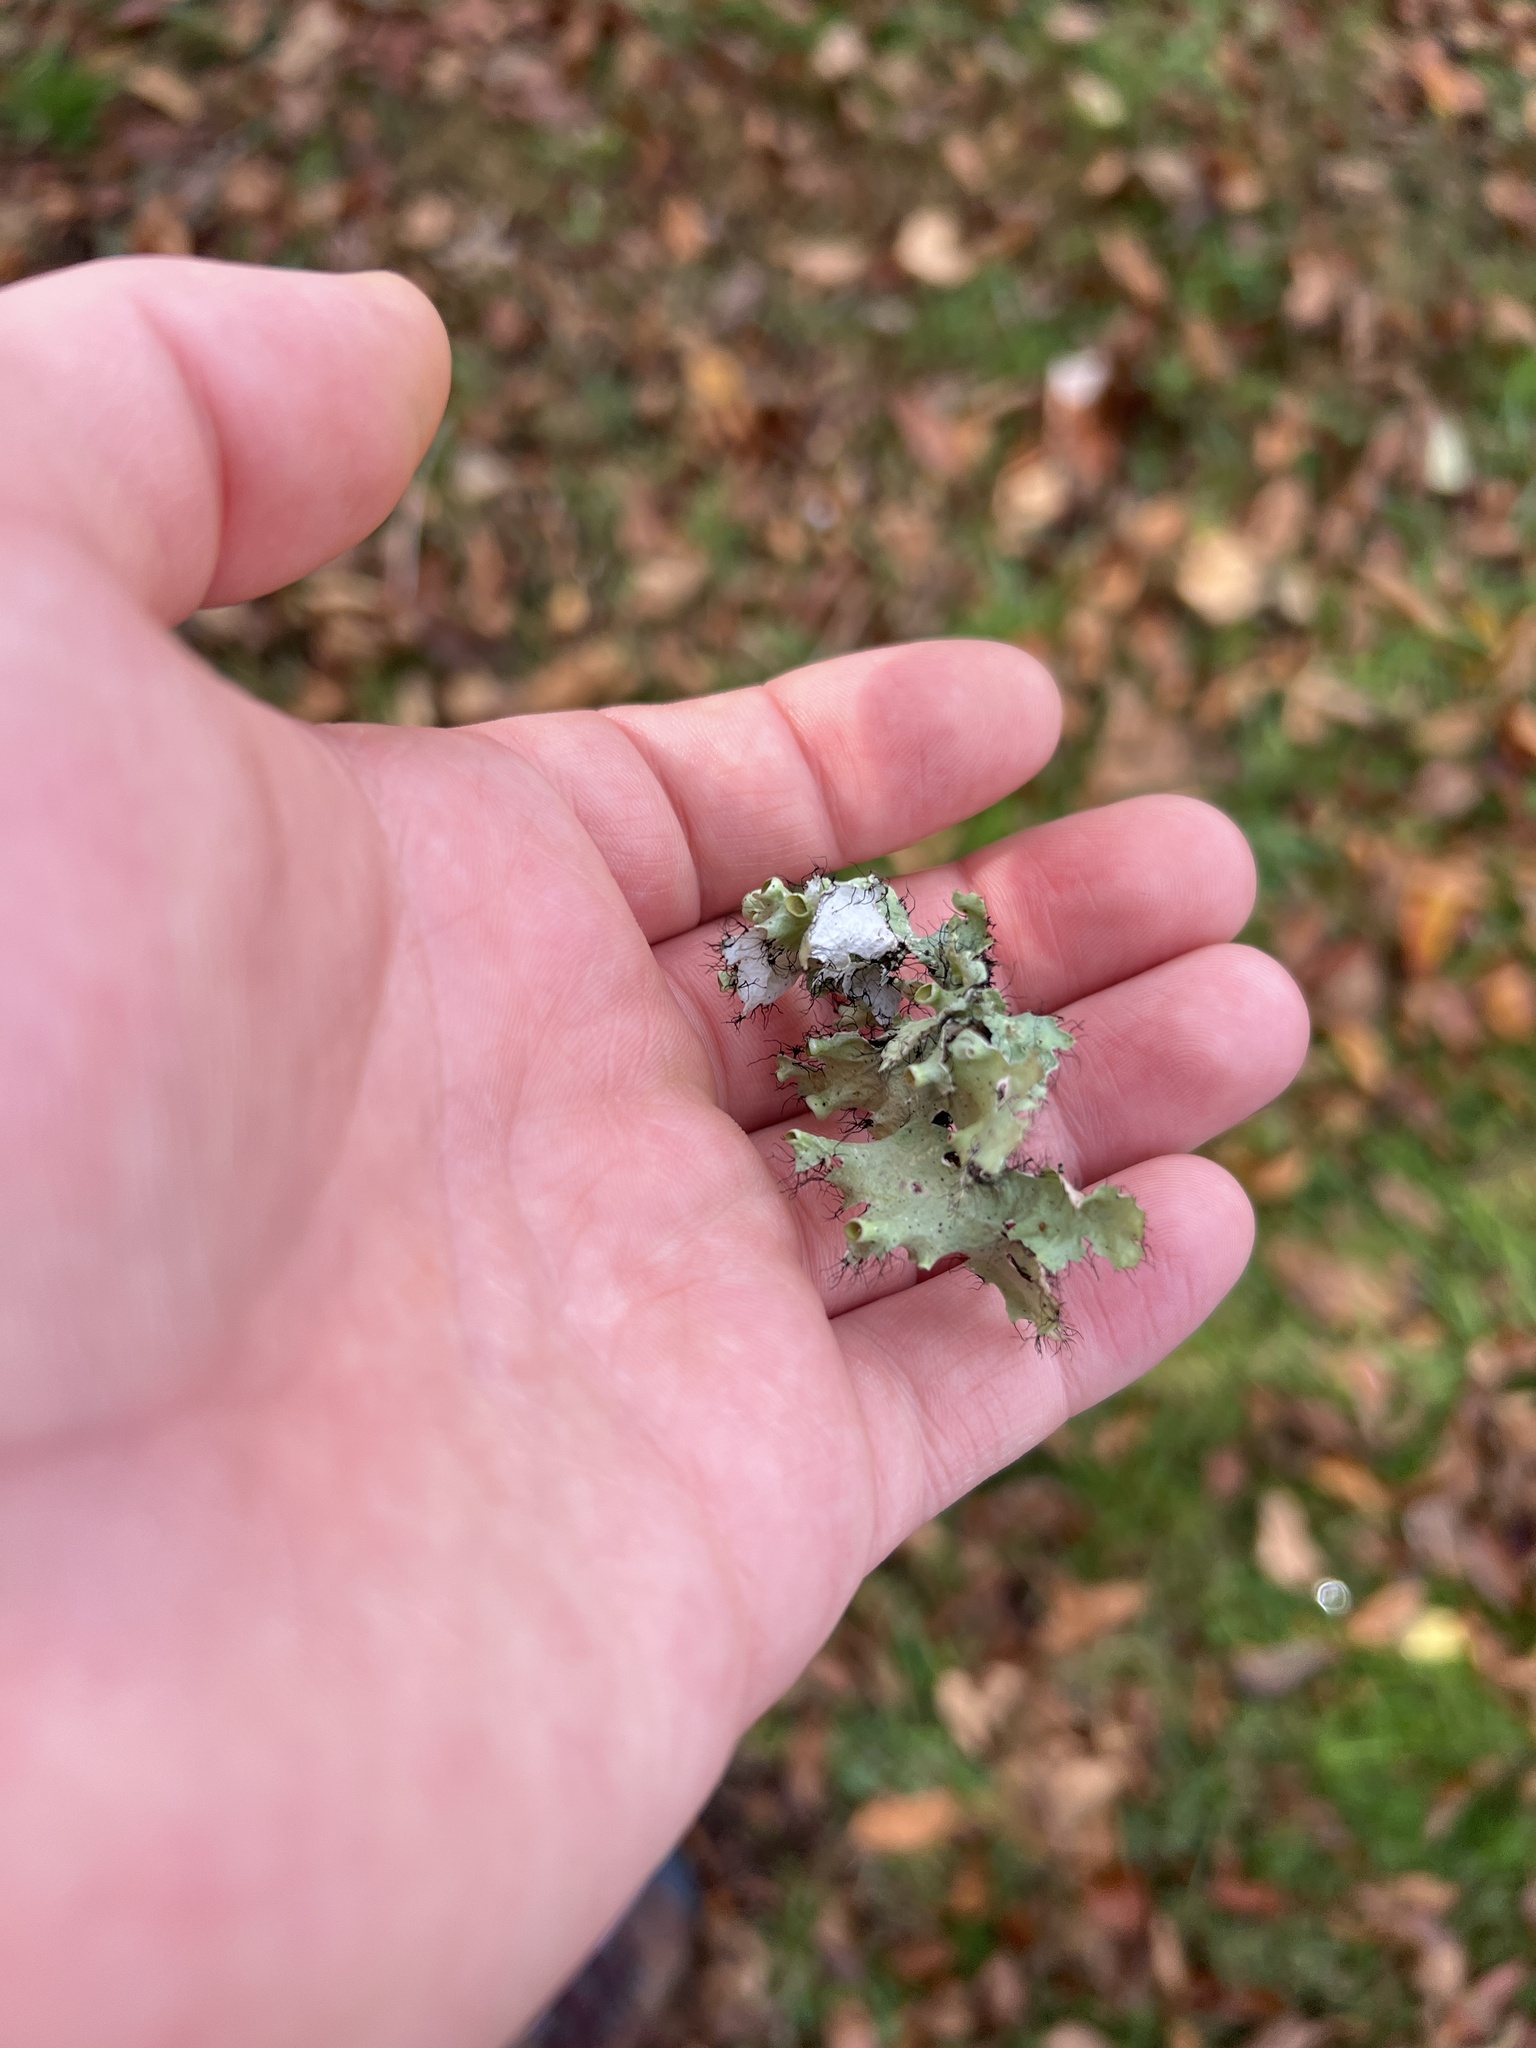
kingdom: Fungi
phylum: Ascomycota
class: Lecanoromycetes
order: Lecanorales
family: Parmeliaceae
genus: Parmotrema
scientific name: Parmotrema hypotropum
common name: Powdered ruffle lichen
